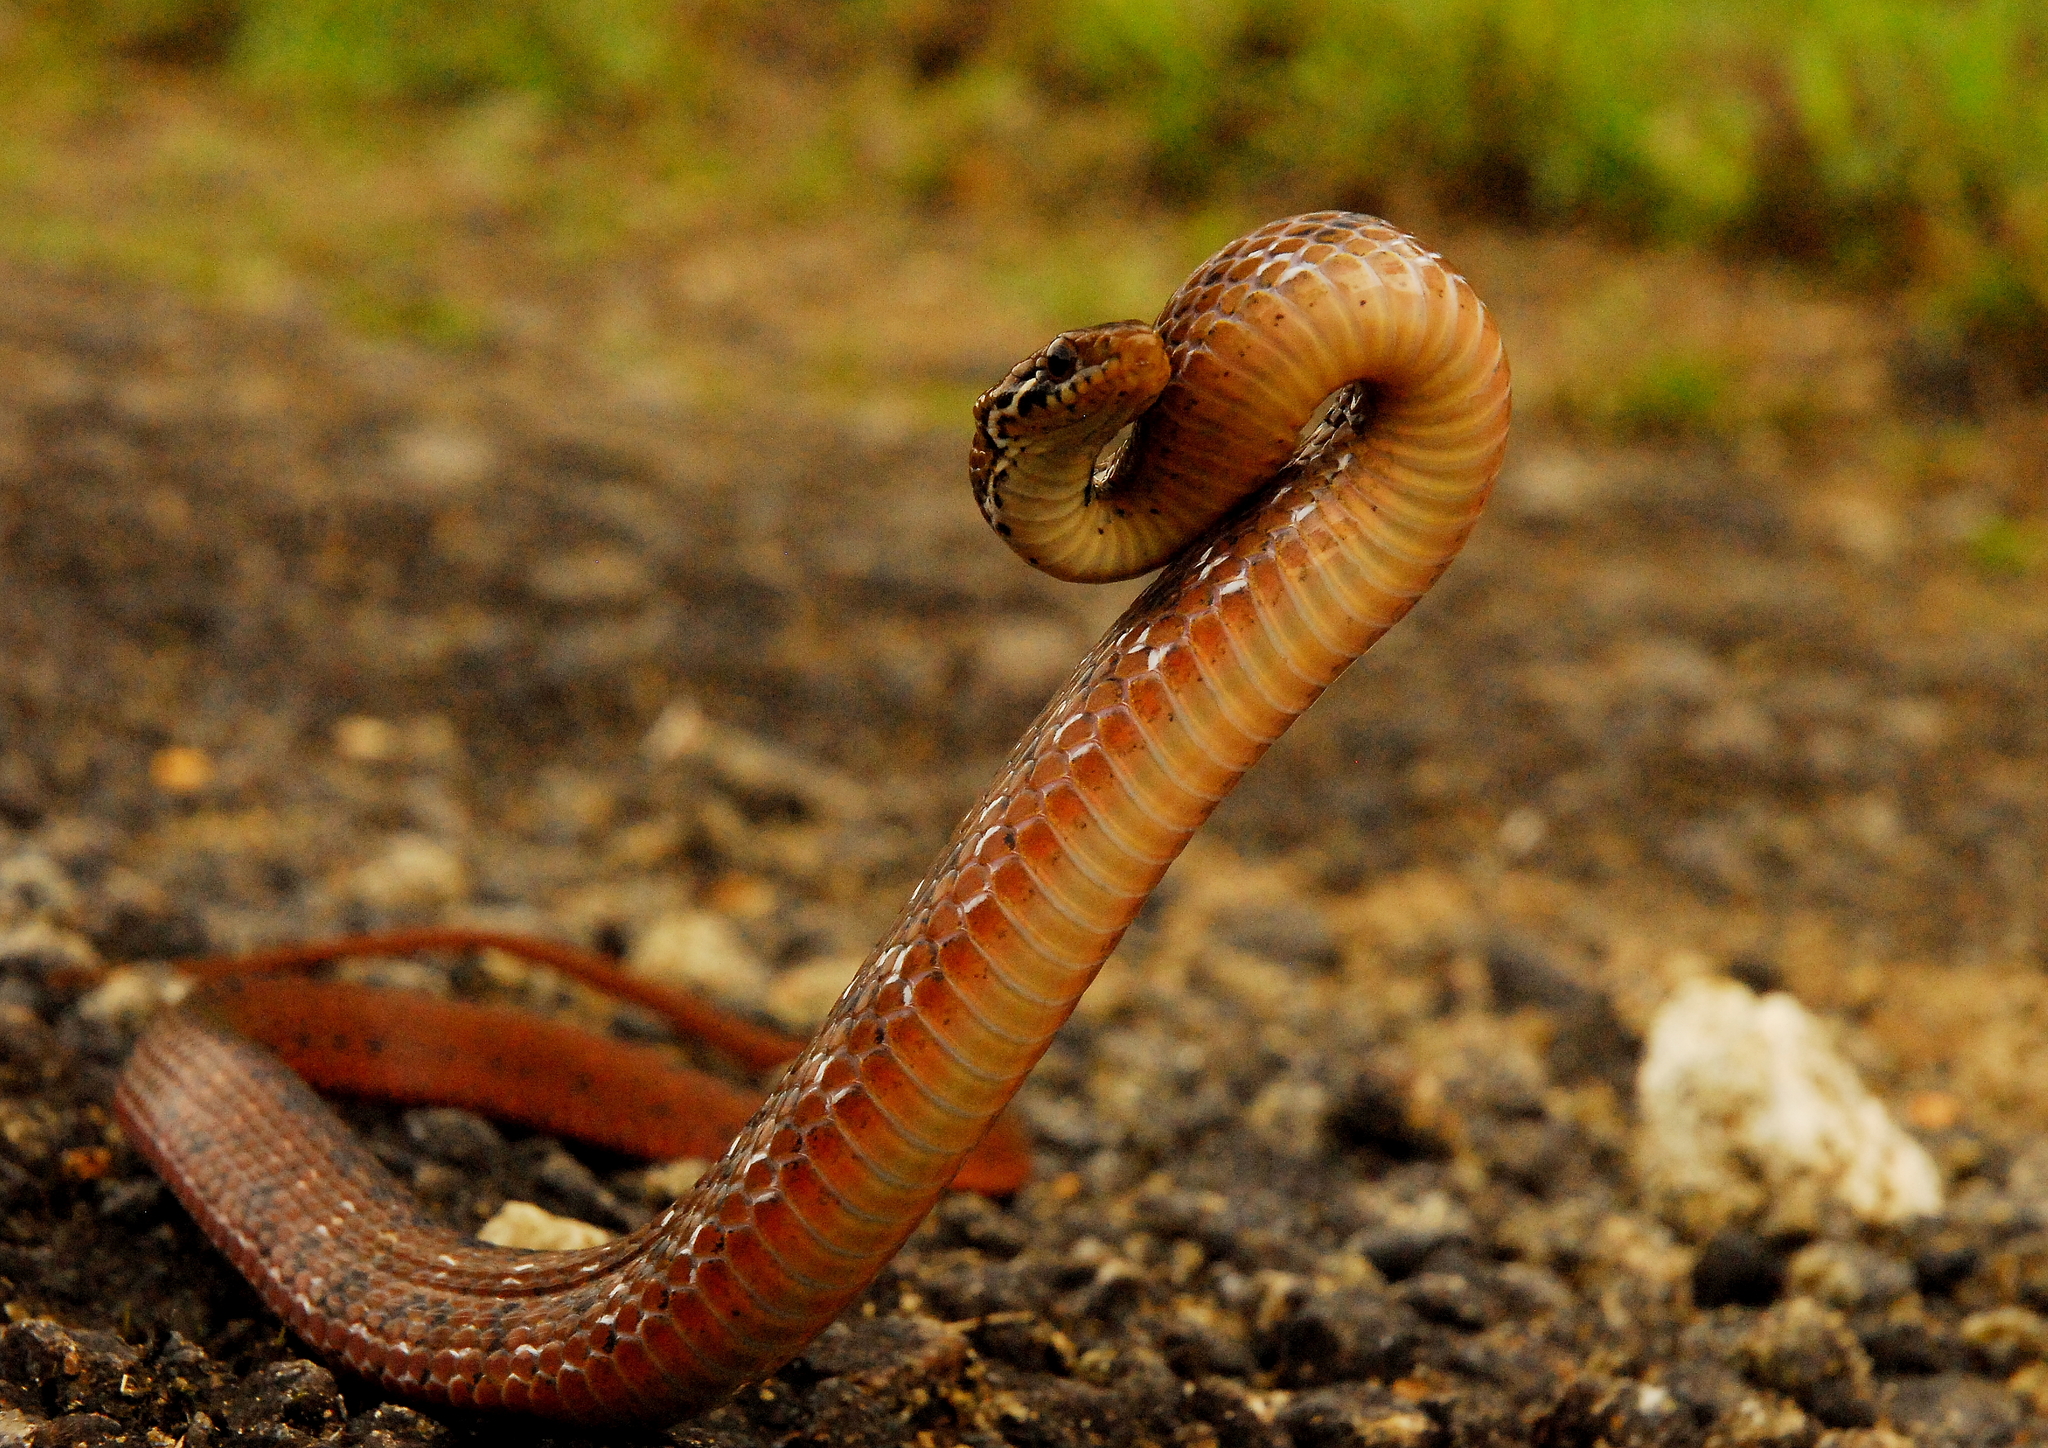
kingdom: Animalia
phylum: Chordata
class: Squamata
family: Colubridae
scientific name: Colubridae
